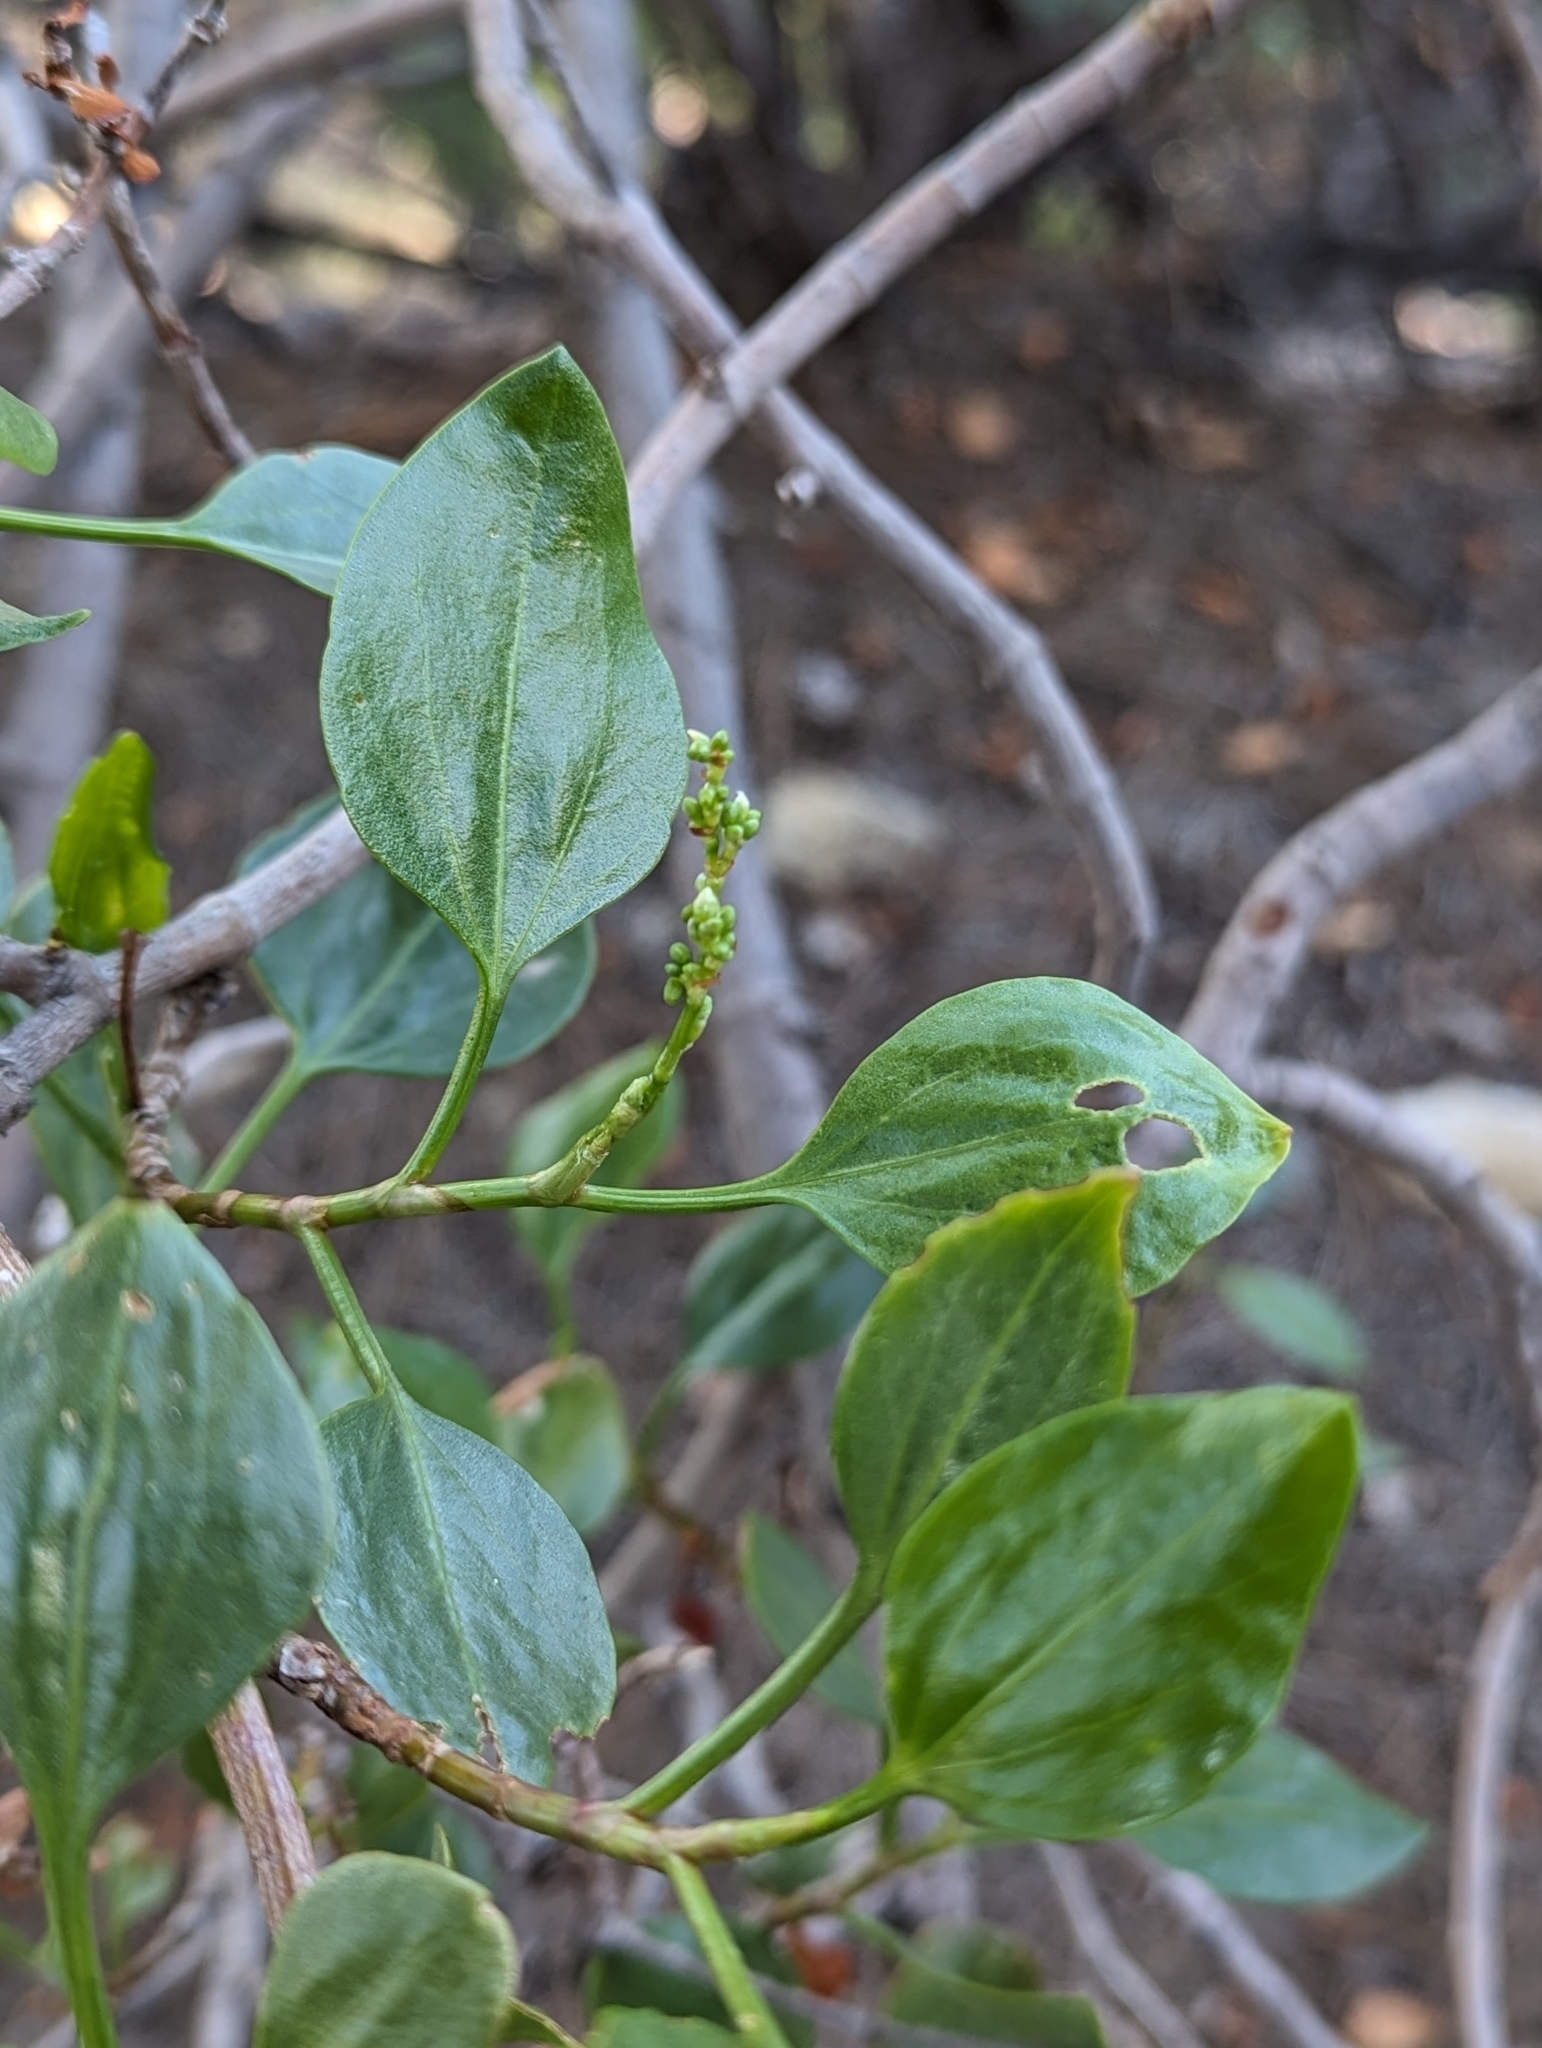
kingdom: Plantae
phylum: Tracheophyta
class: Magnoliopsida
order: Caryophyllales
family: Polygonaceae
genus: Rumex
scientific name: Rumex lunaria
